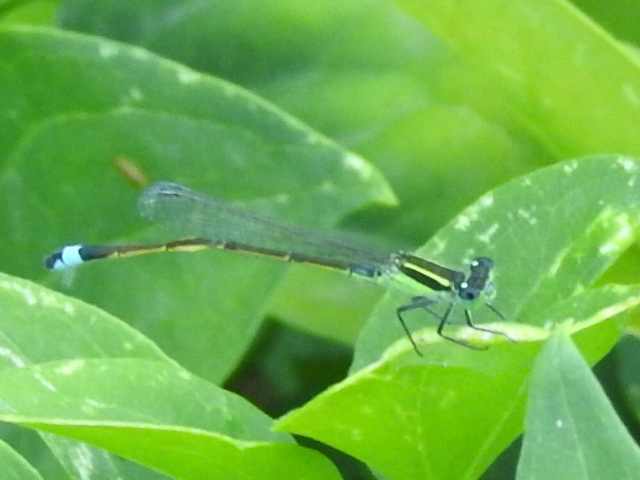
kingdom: Animalia
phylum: Arthropoda
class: Insecta
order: Odonata
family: Coenagrionidae
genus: Ischnura
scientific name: Ischnura ramburii
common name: Rambur's forktail
